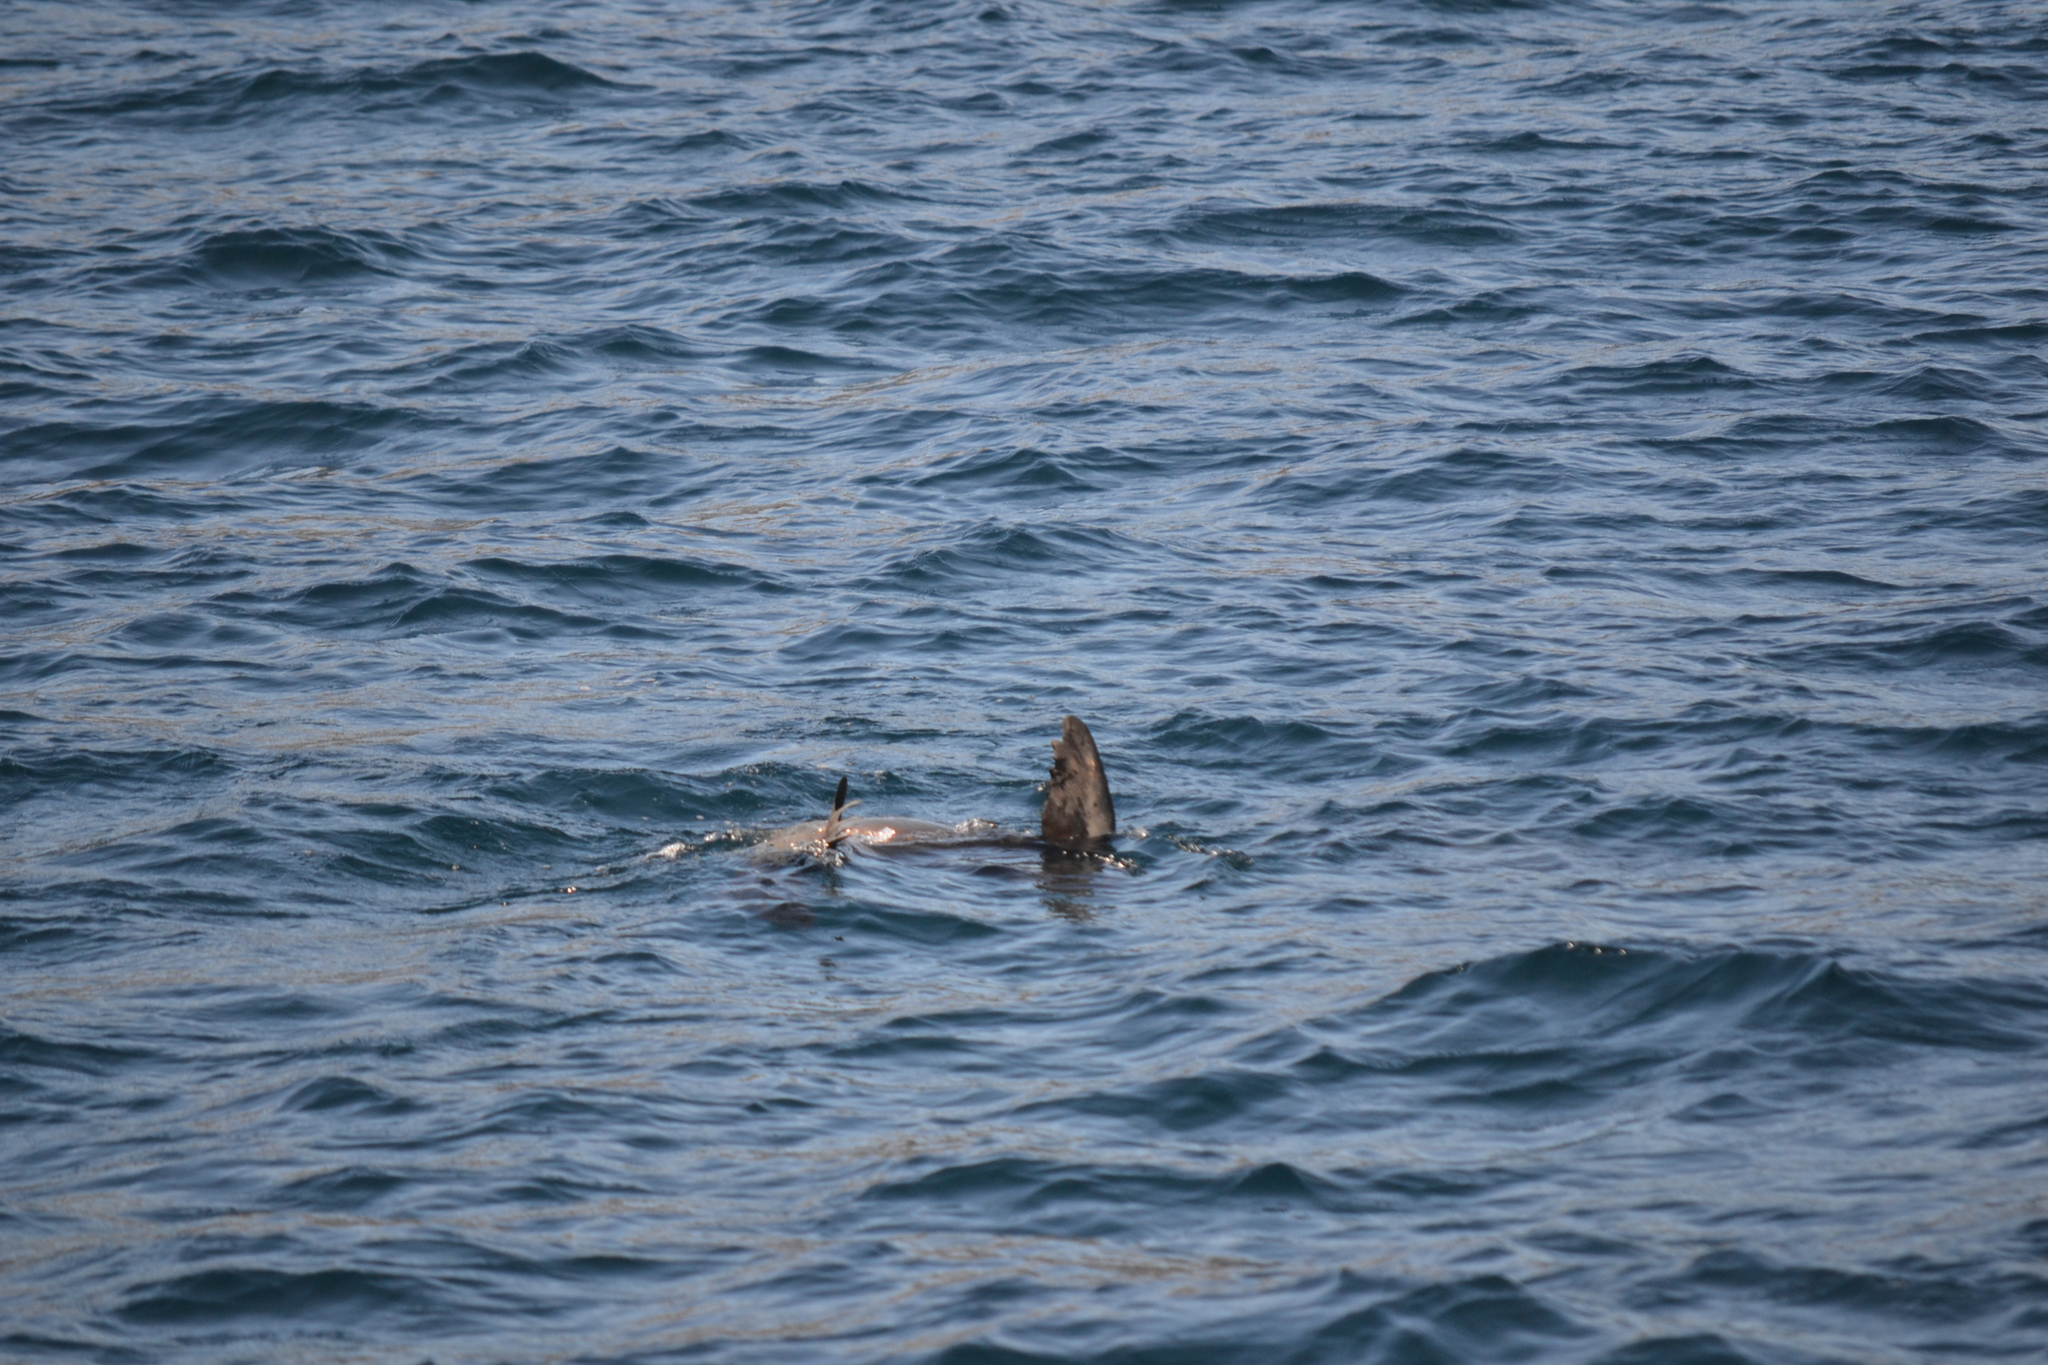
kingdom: Animalia
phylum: Chordata
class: Mammalia
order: Carnivora
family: Otariidae
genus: Zalophus
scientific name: Zalophus californianus
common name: California sea lion
